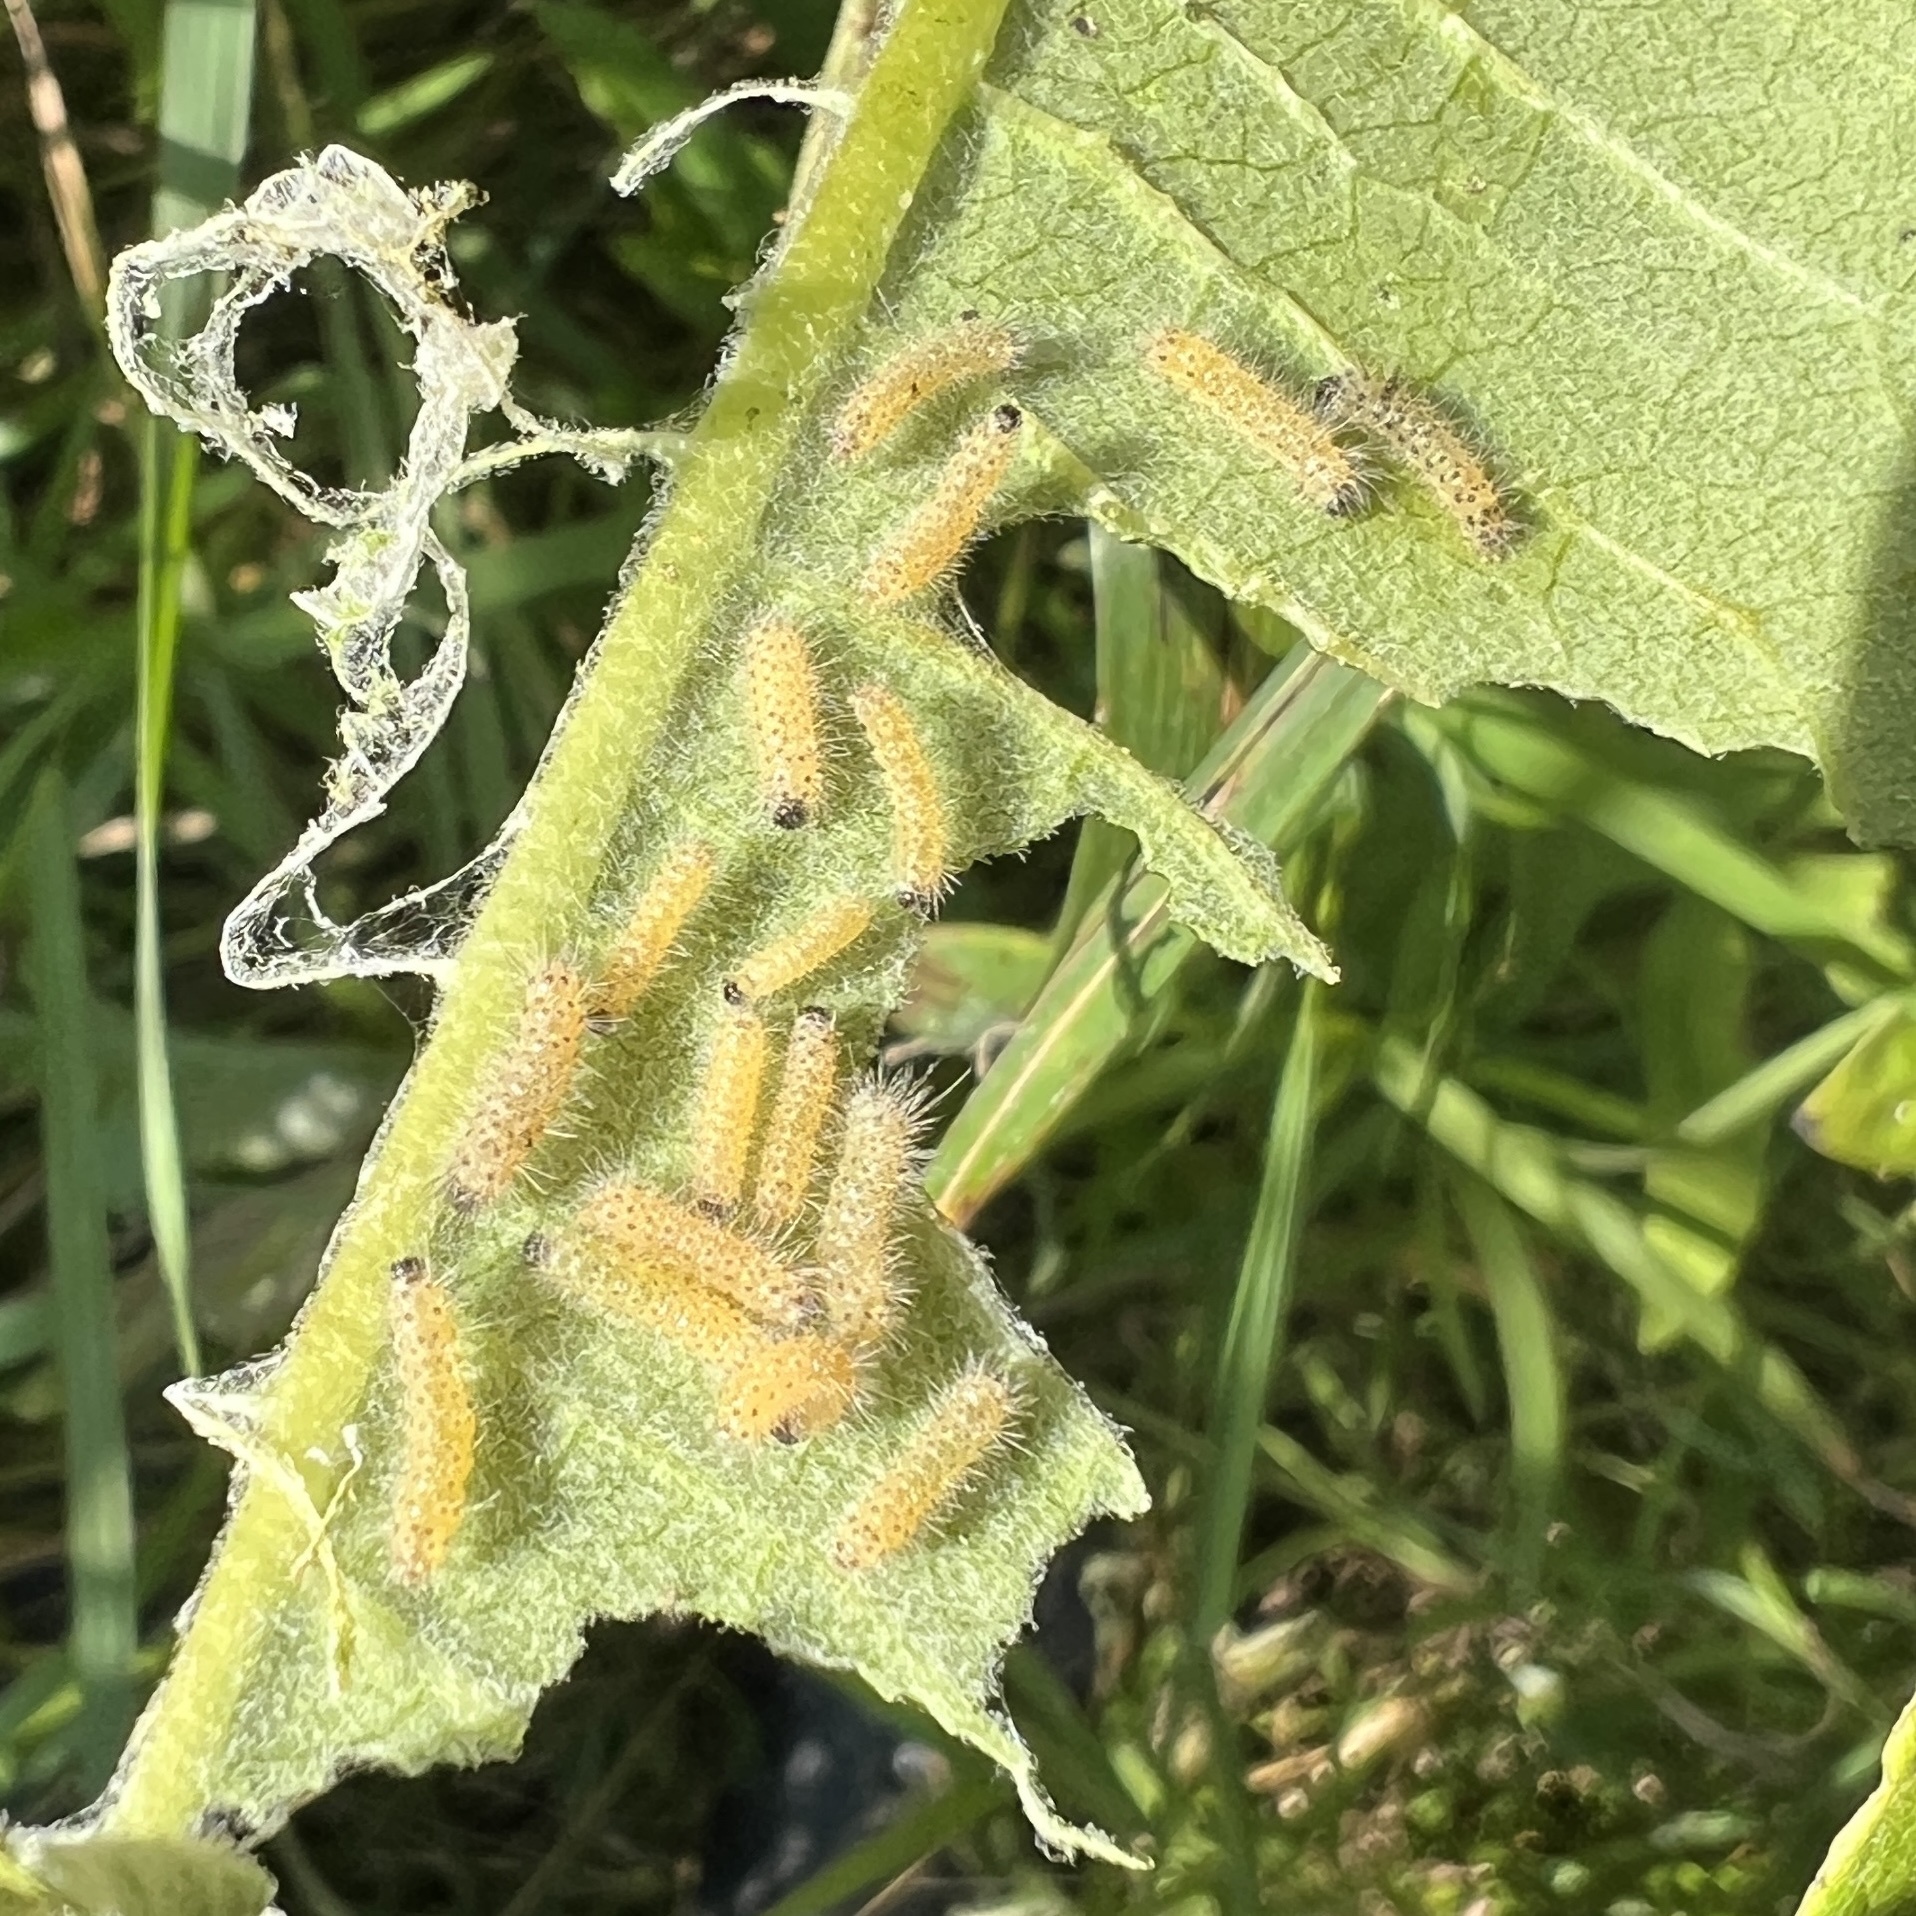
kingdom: Animalia
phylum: Arthropoda
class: Insecta
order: Lepidoptera
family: Erebidae
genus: Euchaetes
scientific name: Euchaetes egle
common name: Milkweed tussock moth
